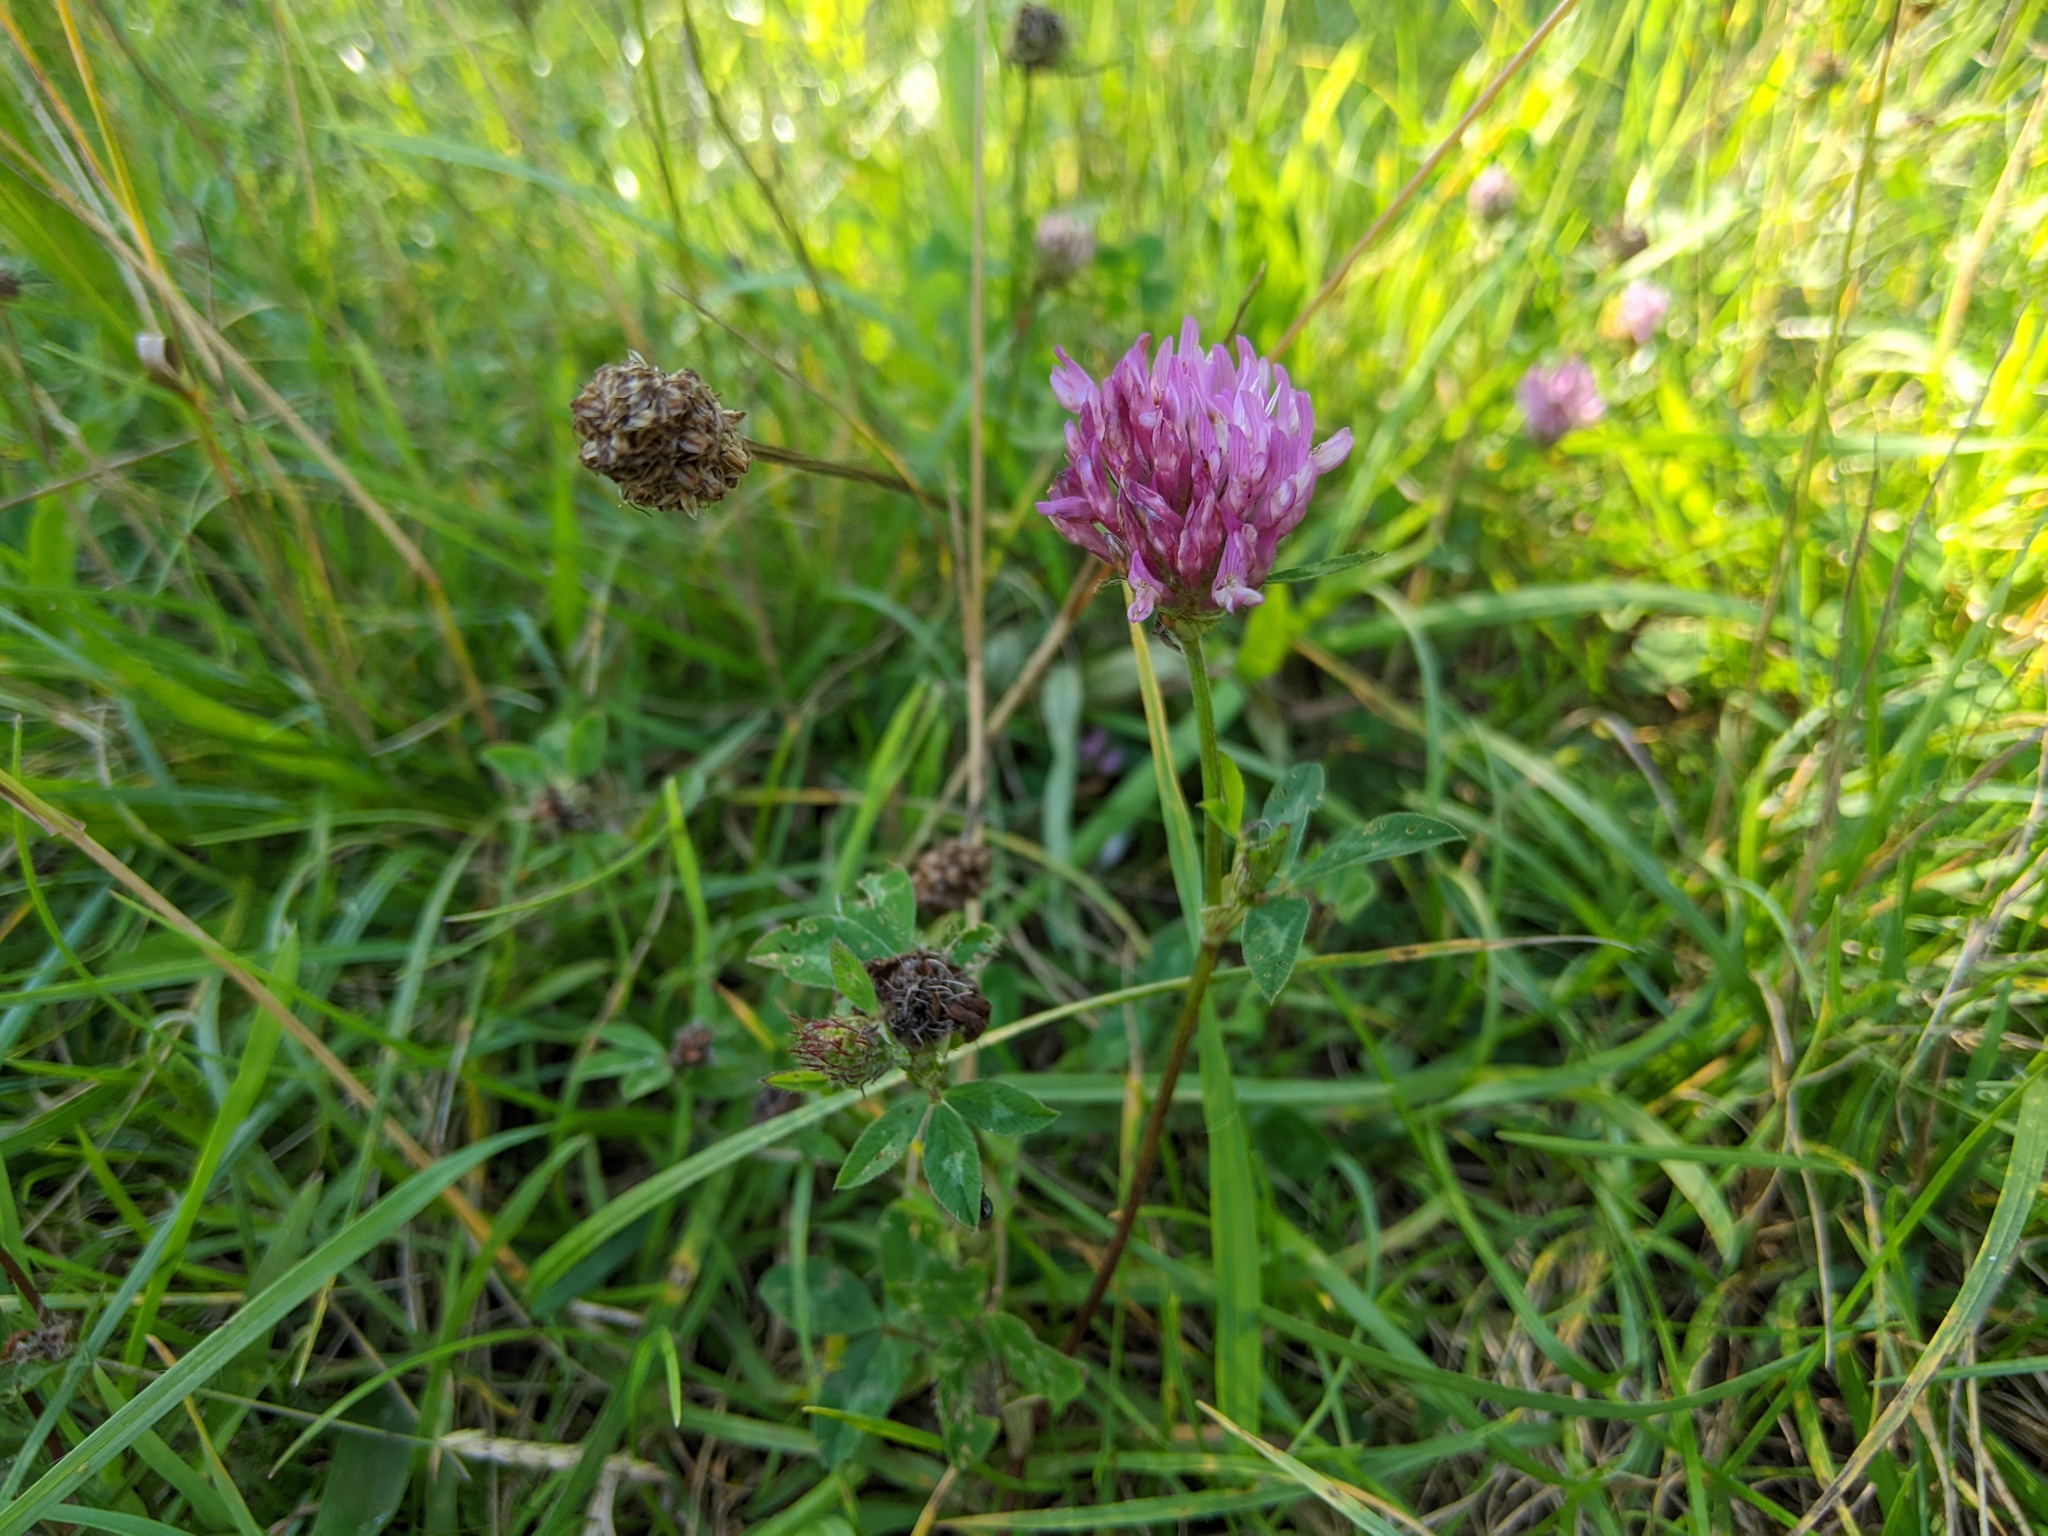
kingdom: Plantae
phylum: Tracheophyta
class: Magnoliopsida
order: Fabales
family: Fabaceae
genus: Trifolium
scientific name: Trifolium pratense
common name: Red clover
